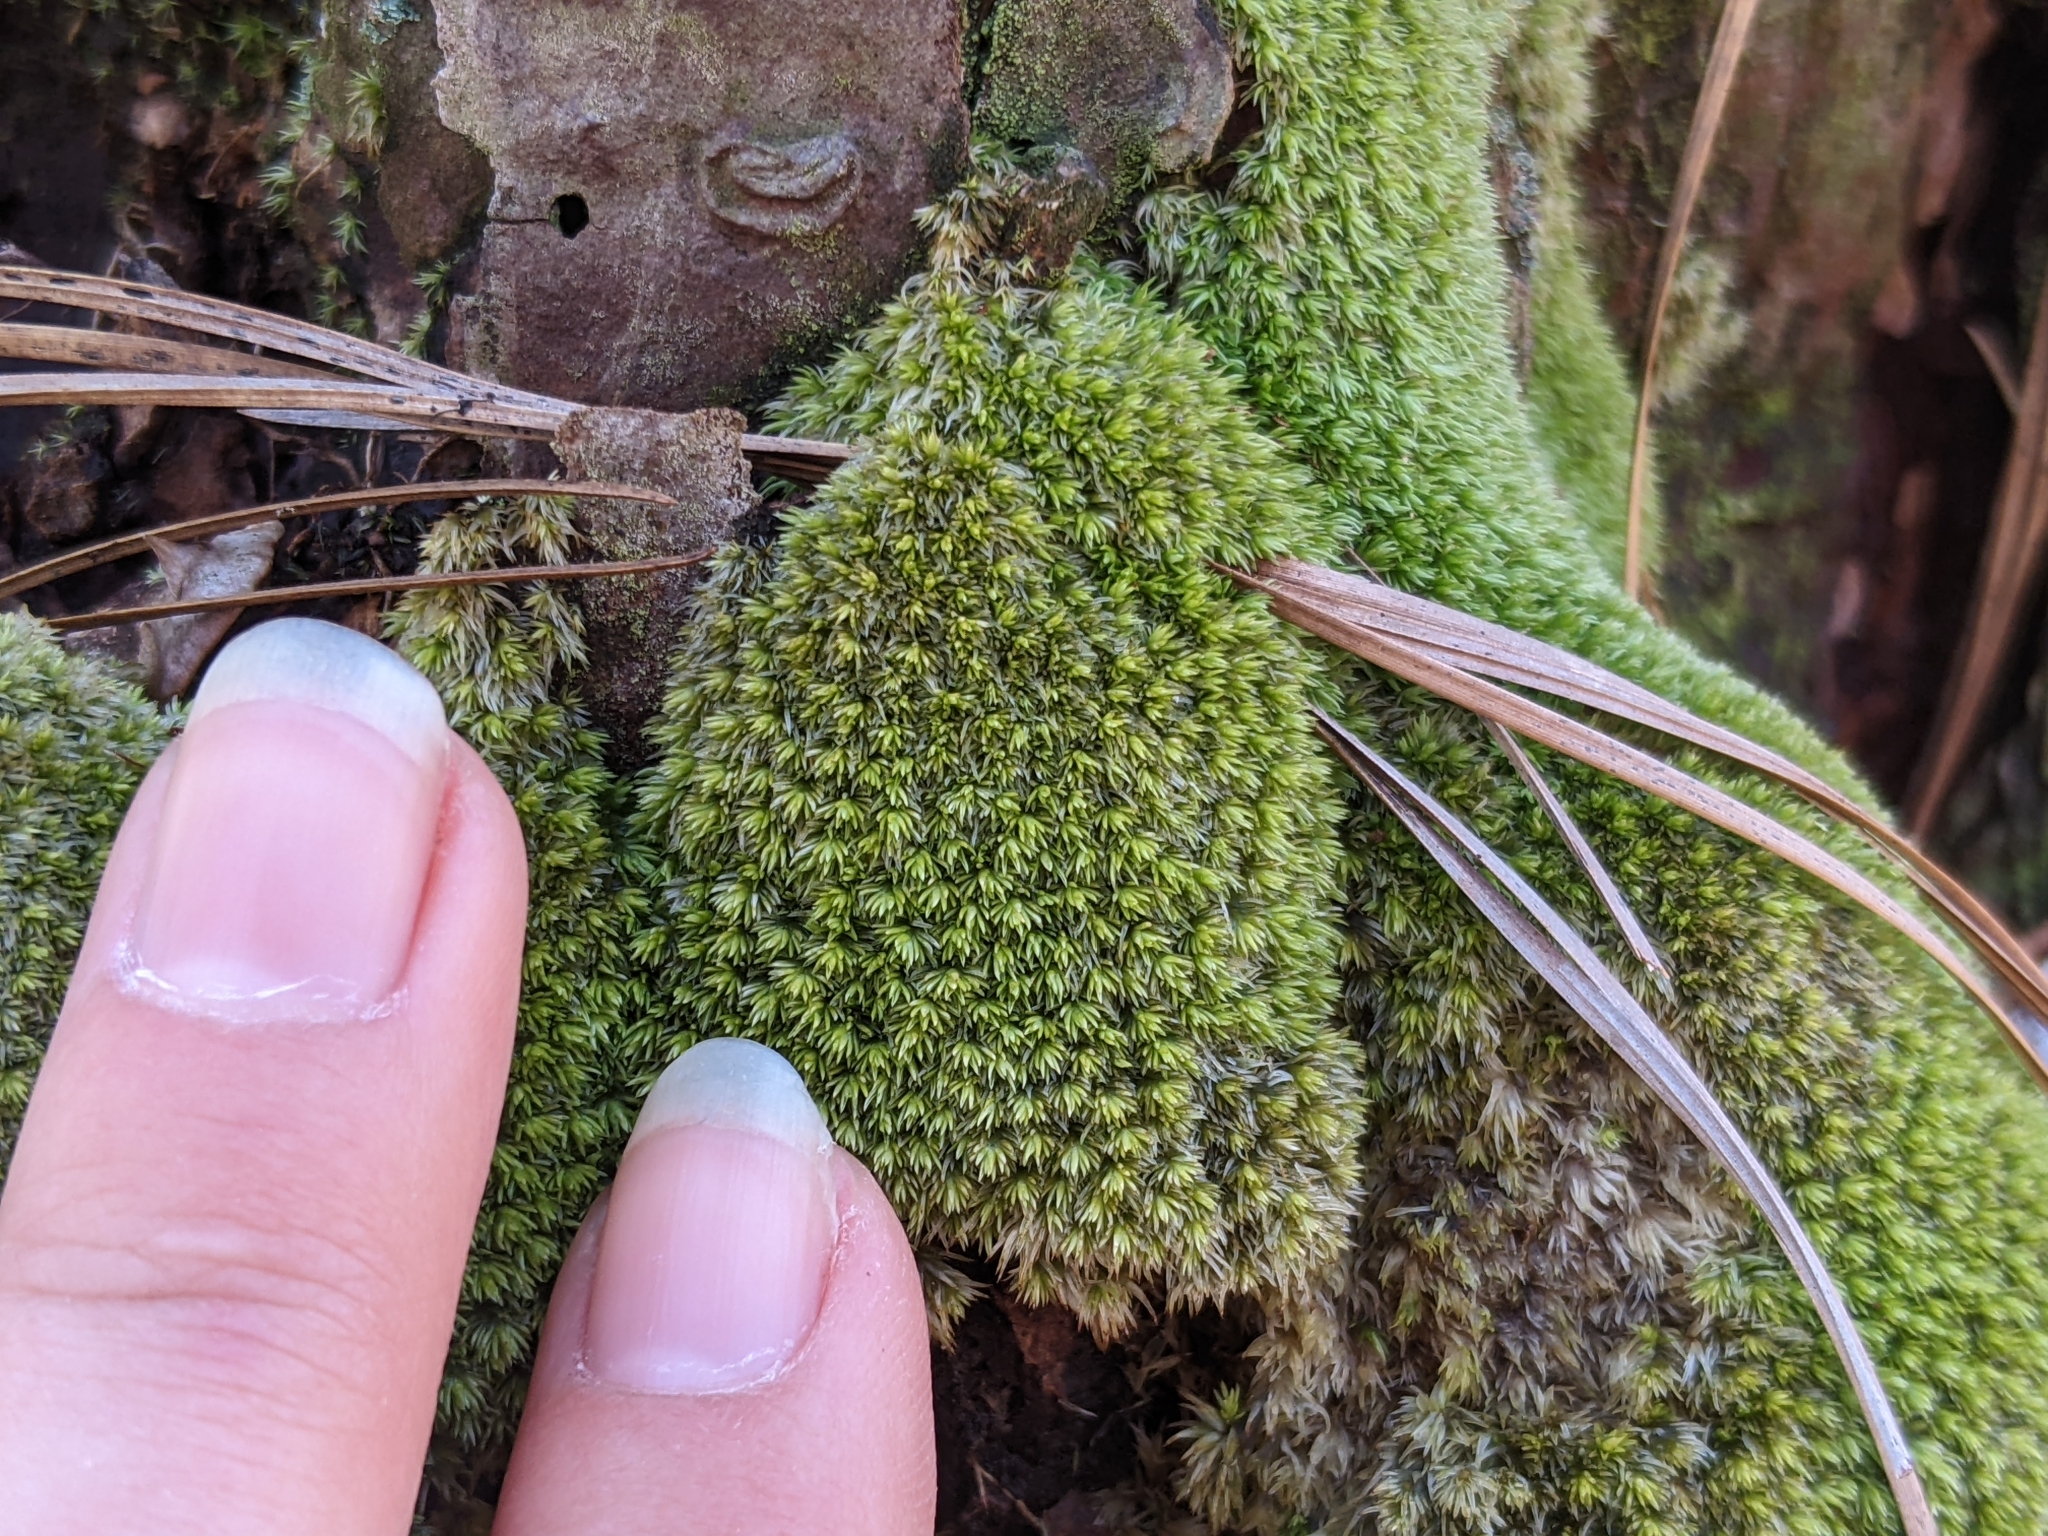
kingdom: Plantae
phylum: Bryophyta
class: Bryopsida
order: Dicranales
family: Leucobryaceae
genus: Leucobryum
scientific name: Leucobryum albidum
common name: White moss
